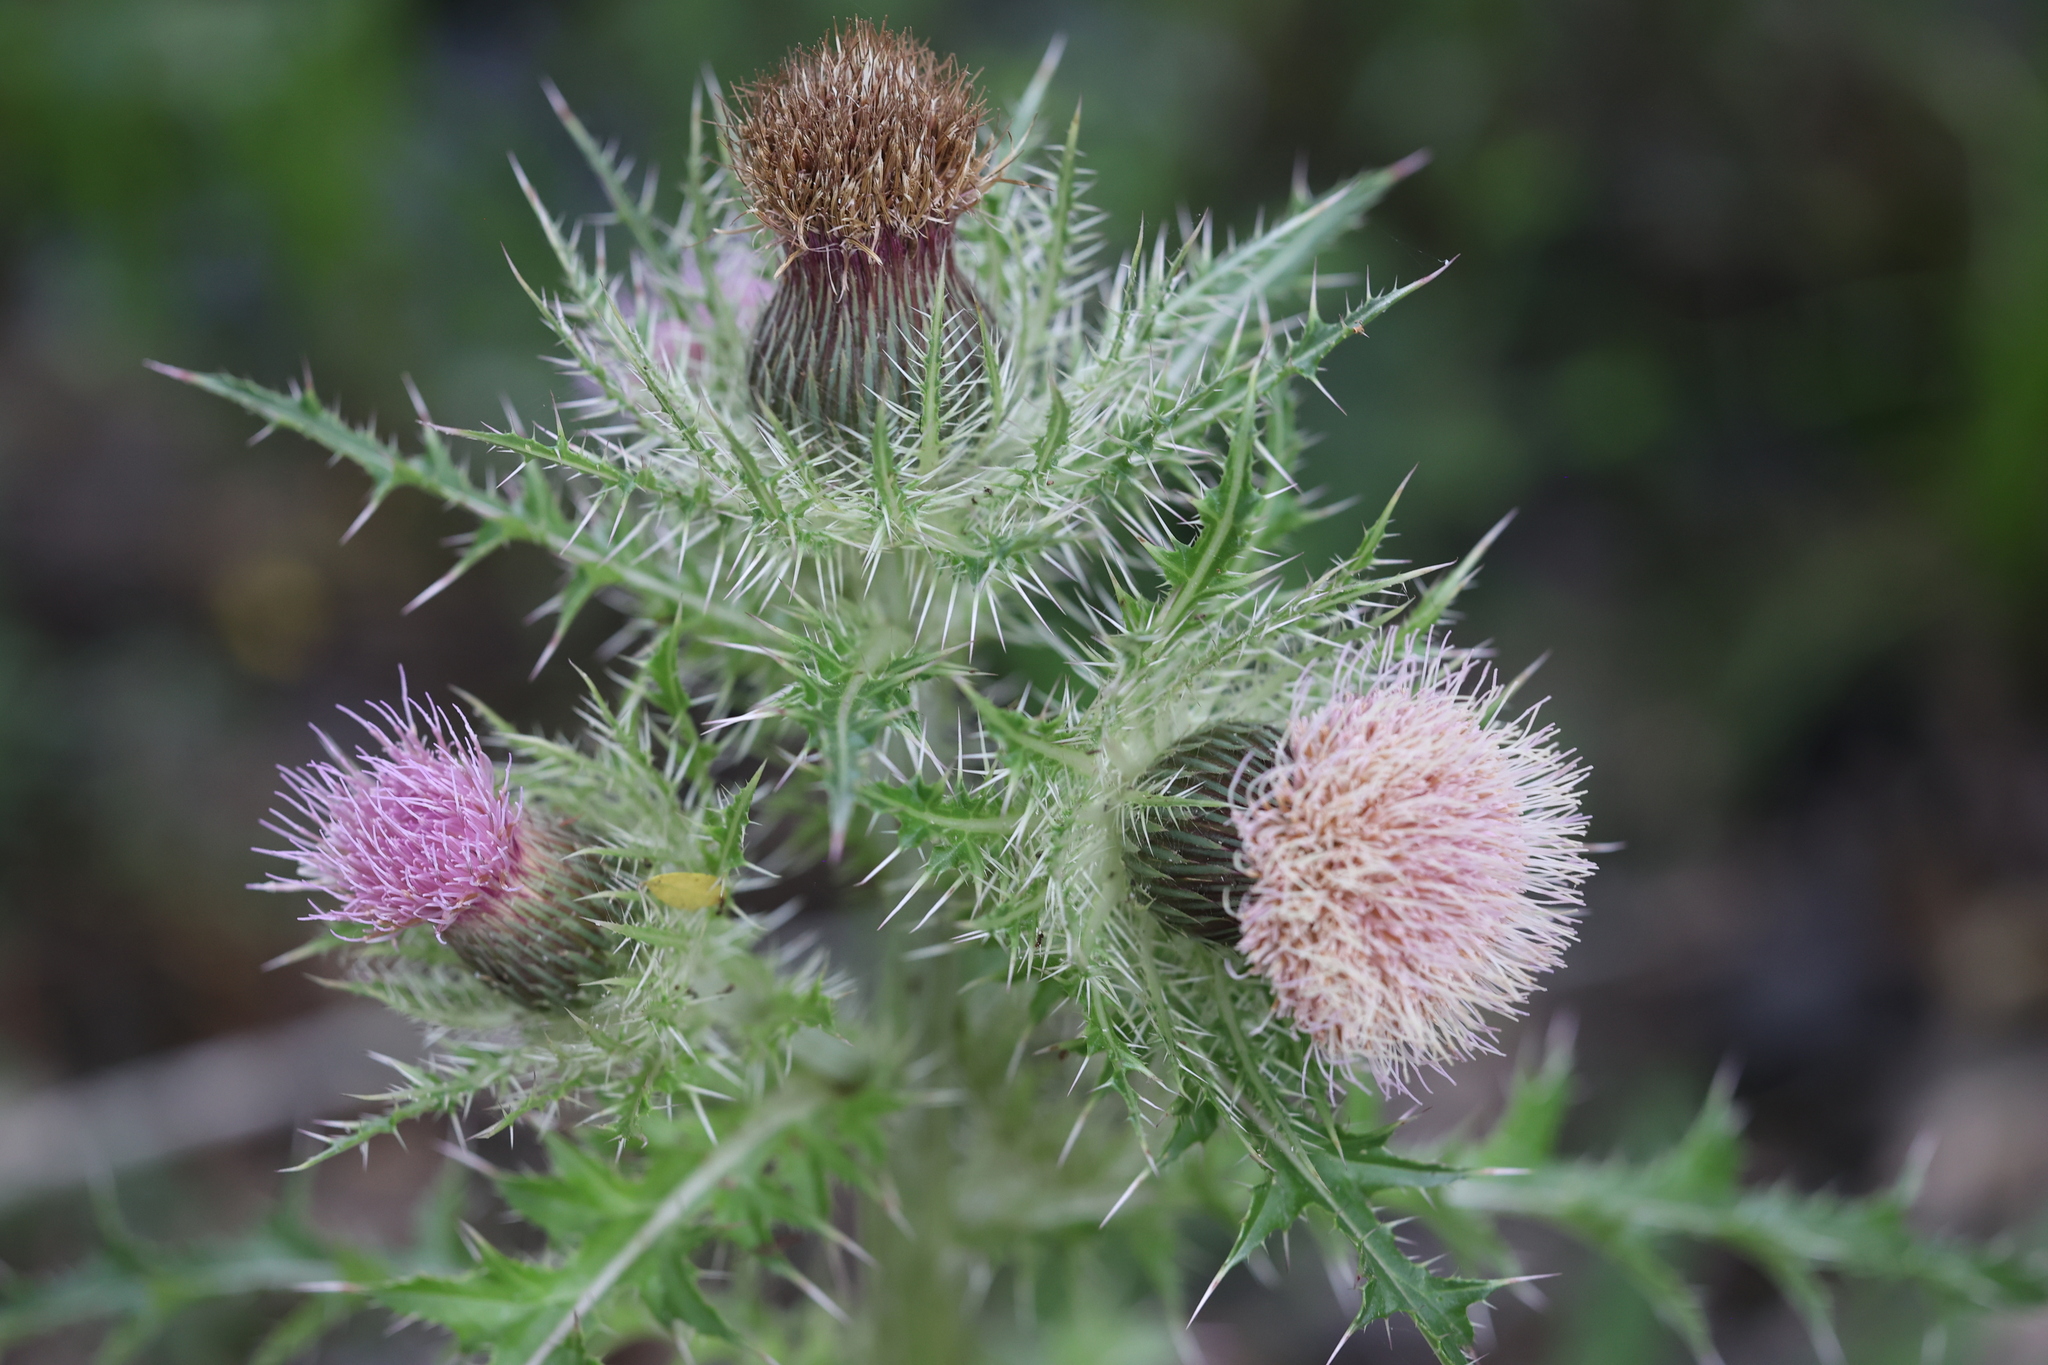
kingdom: Plantae
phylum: Tracheophyta
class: Magnoliopsida
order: Asterales
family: Asteraceae
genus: Cirsium
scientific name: Cirsium horridulum
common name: Bristly thistle
